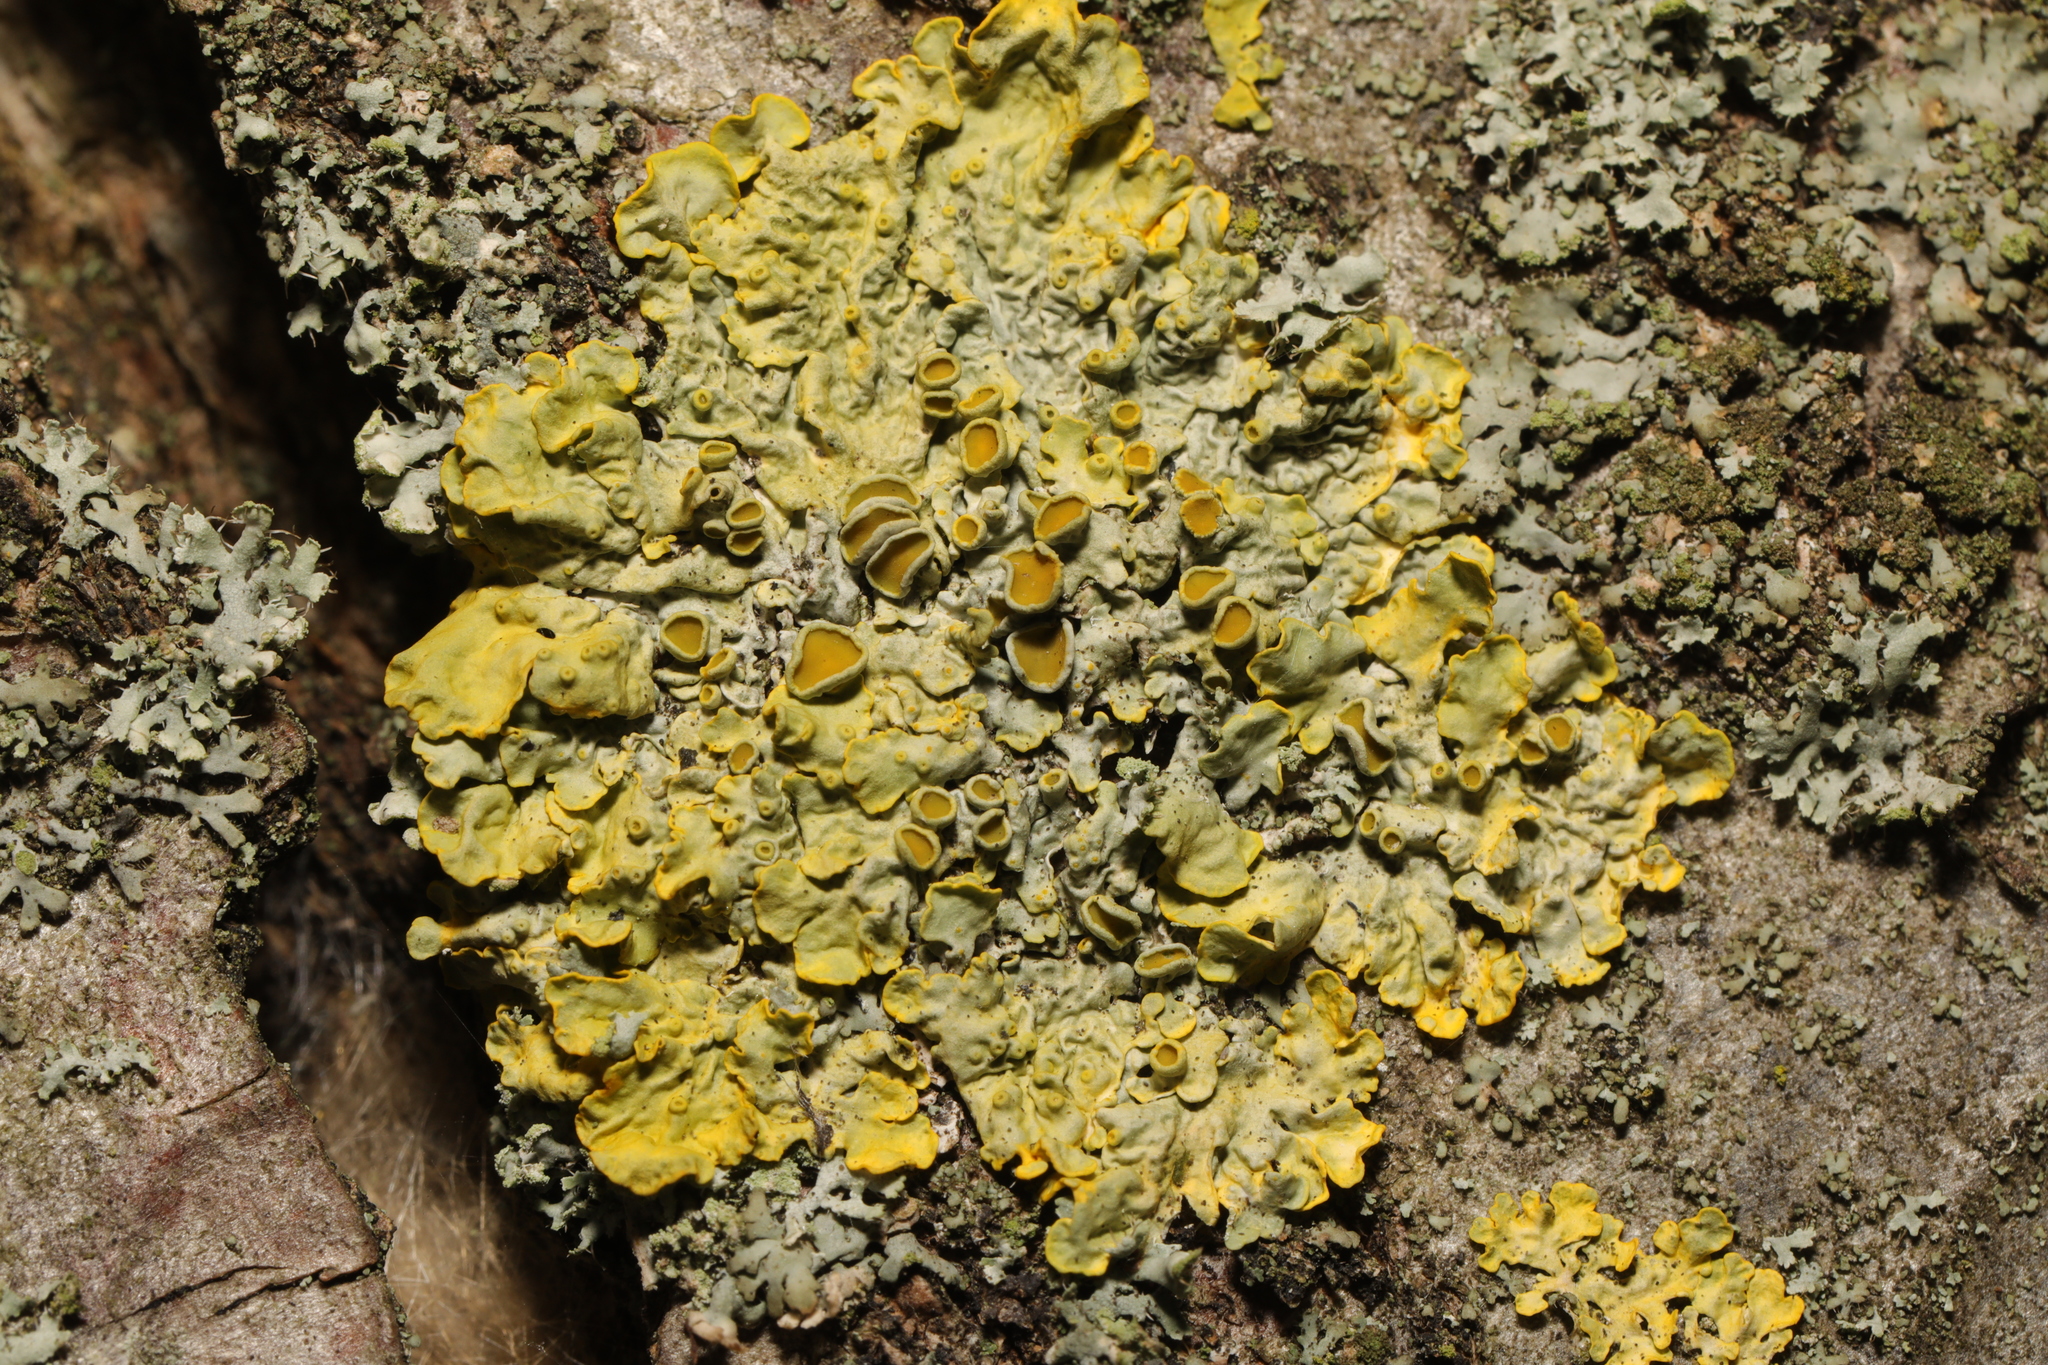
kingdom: Fungi
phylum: Ascomycota
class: Lecanoromycetes
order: Teloschistales
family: Teloschistaceae
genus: Xanthoria
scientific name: Xanthoria parietina
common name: Common orange lichen
